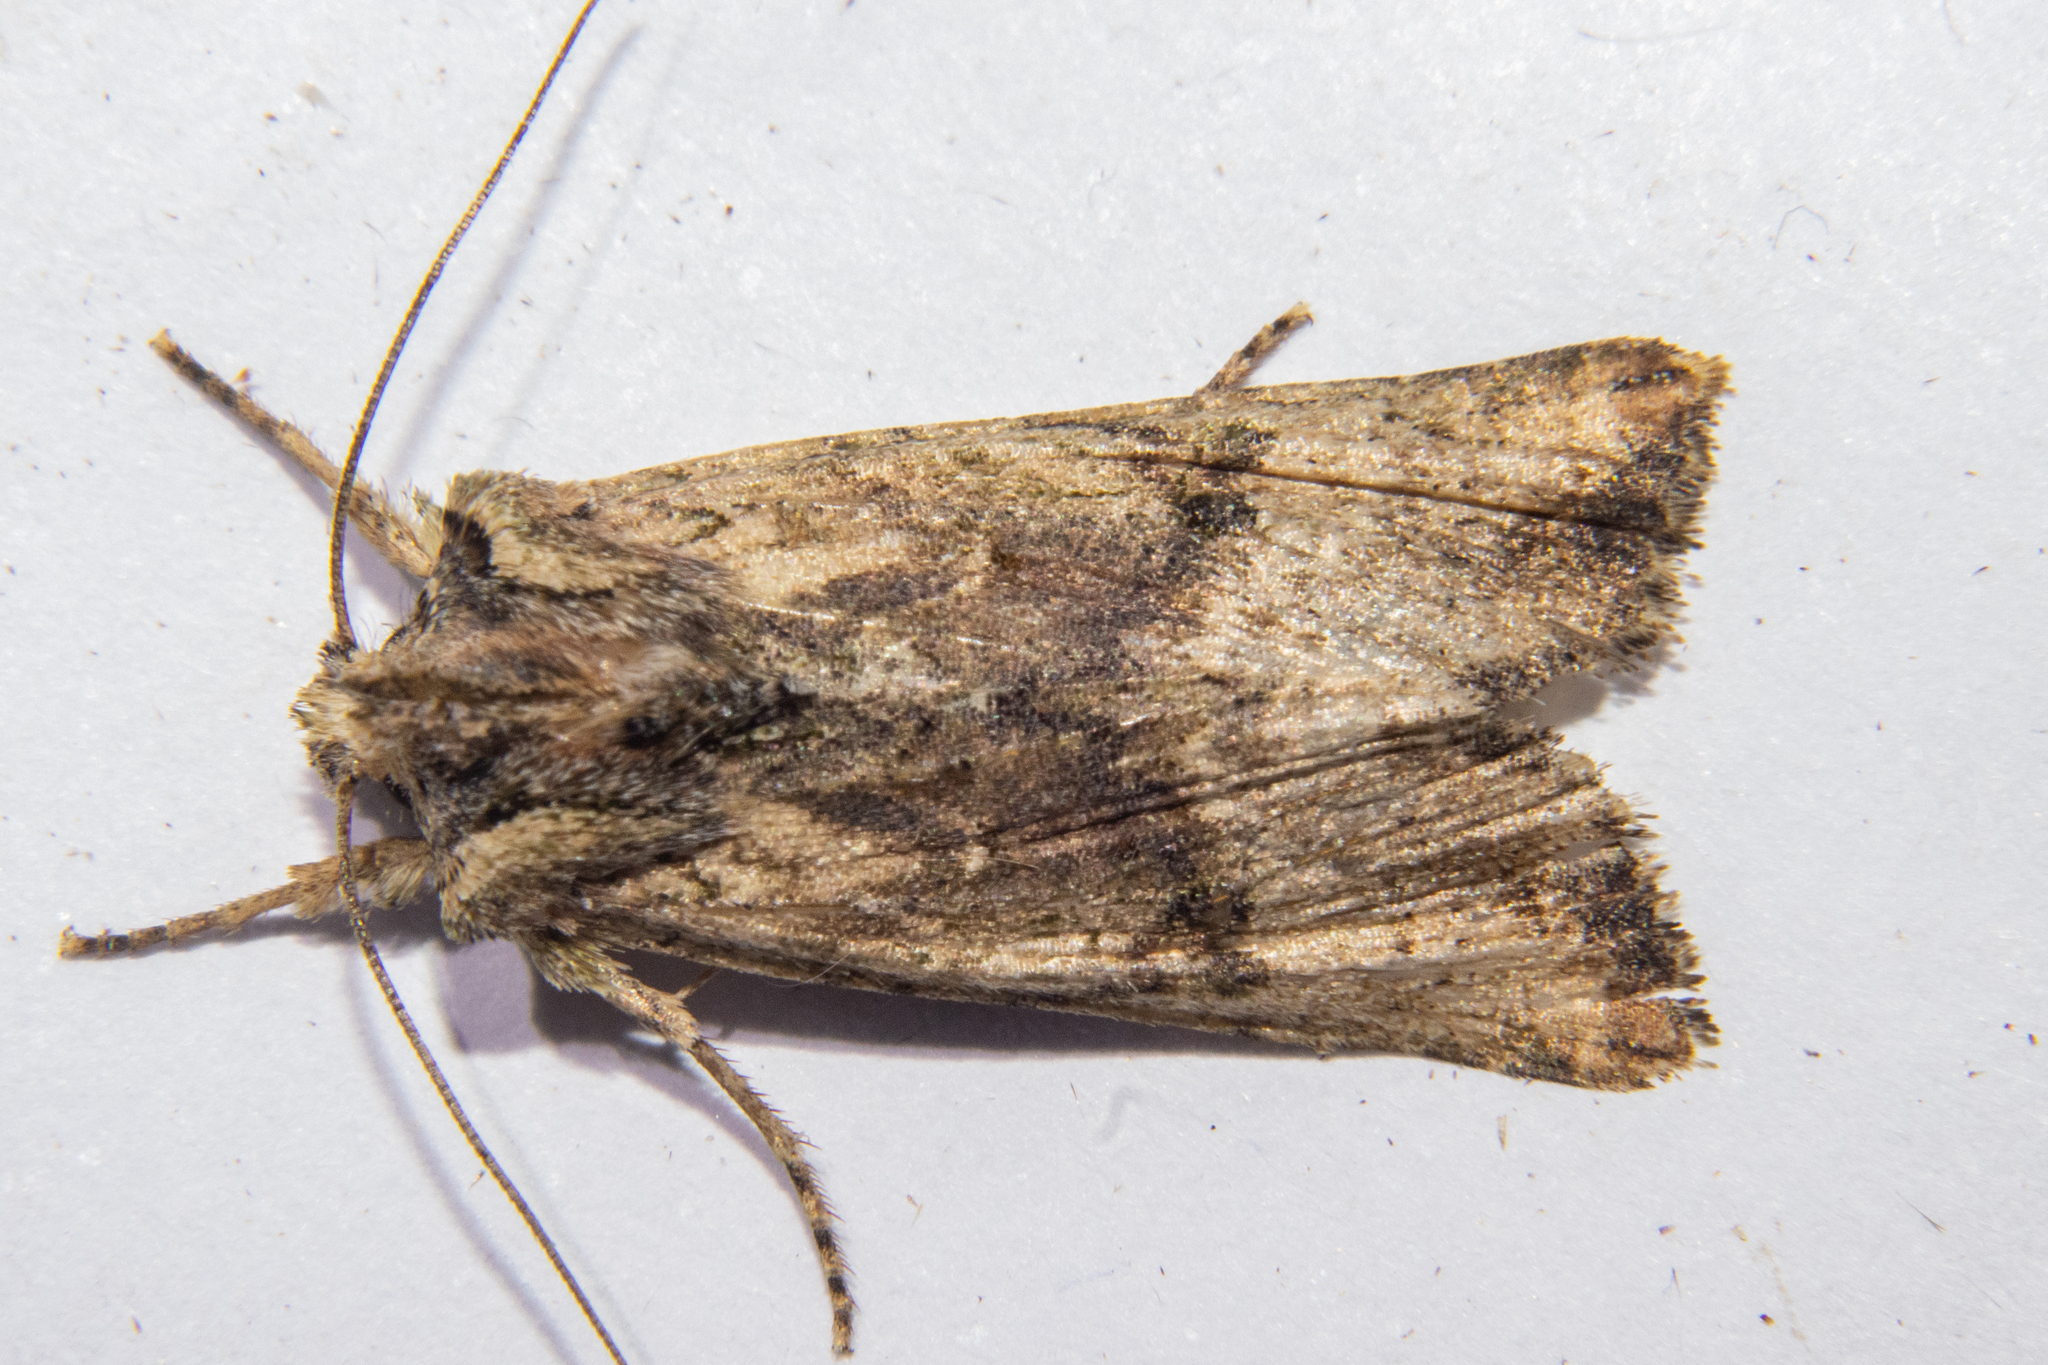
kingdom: Animalia
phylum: Arthropoda
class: Insecta
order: Lepidoptera
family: Noctuidae
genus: Meterana
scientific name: Meterana coeleno
